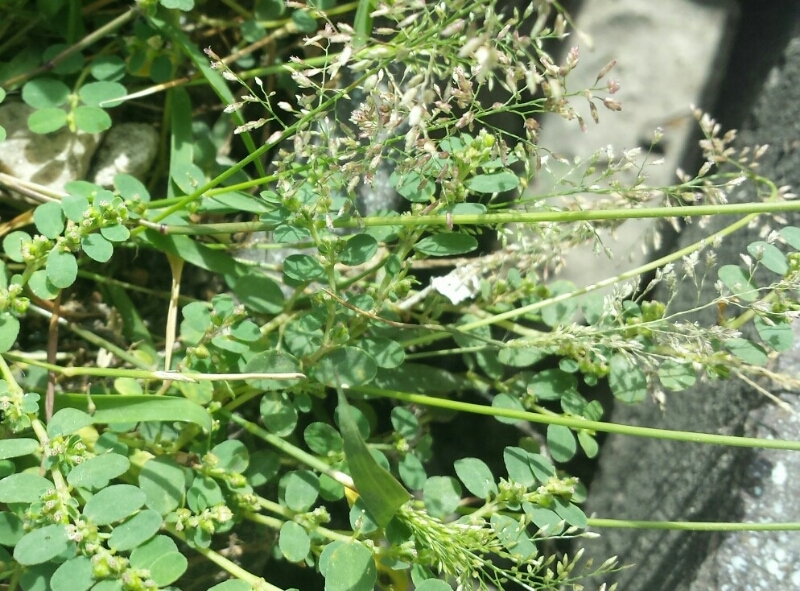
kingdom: Plantae
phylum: Tracheophyta
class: Magnoliopsida
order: Malpighiales
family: Euphorbiaceae
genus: Euphorbia
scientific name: Euphorbia prostrata
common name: Prostrate sandmat
